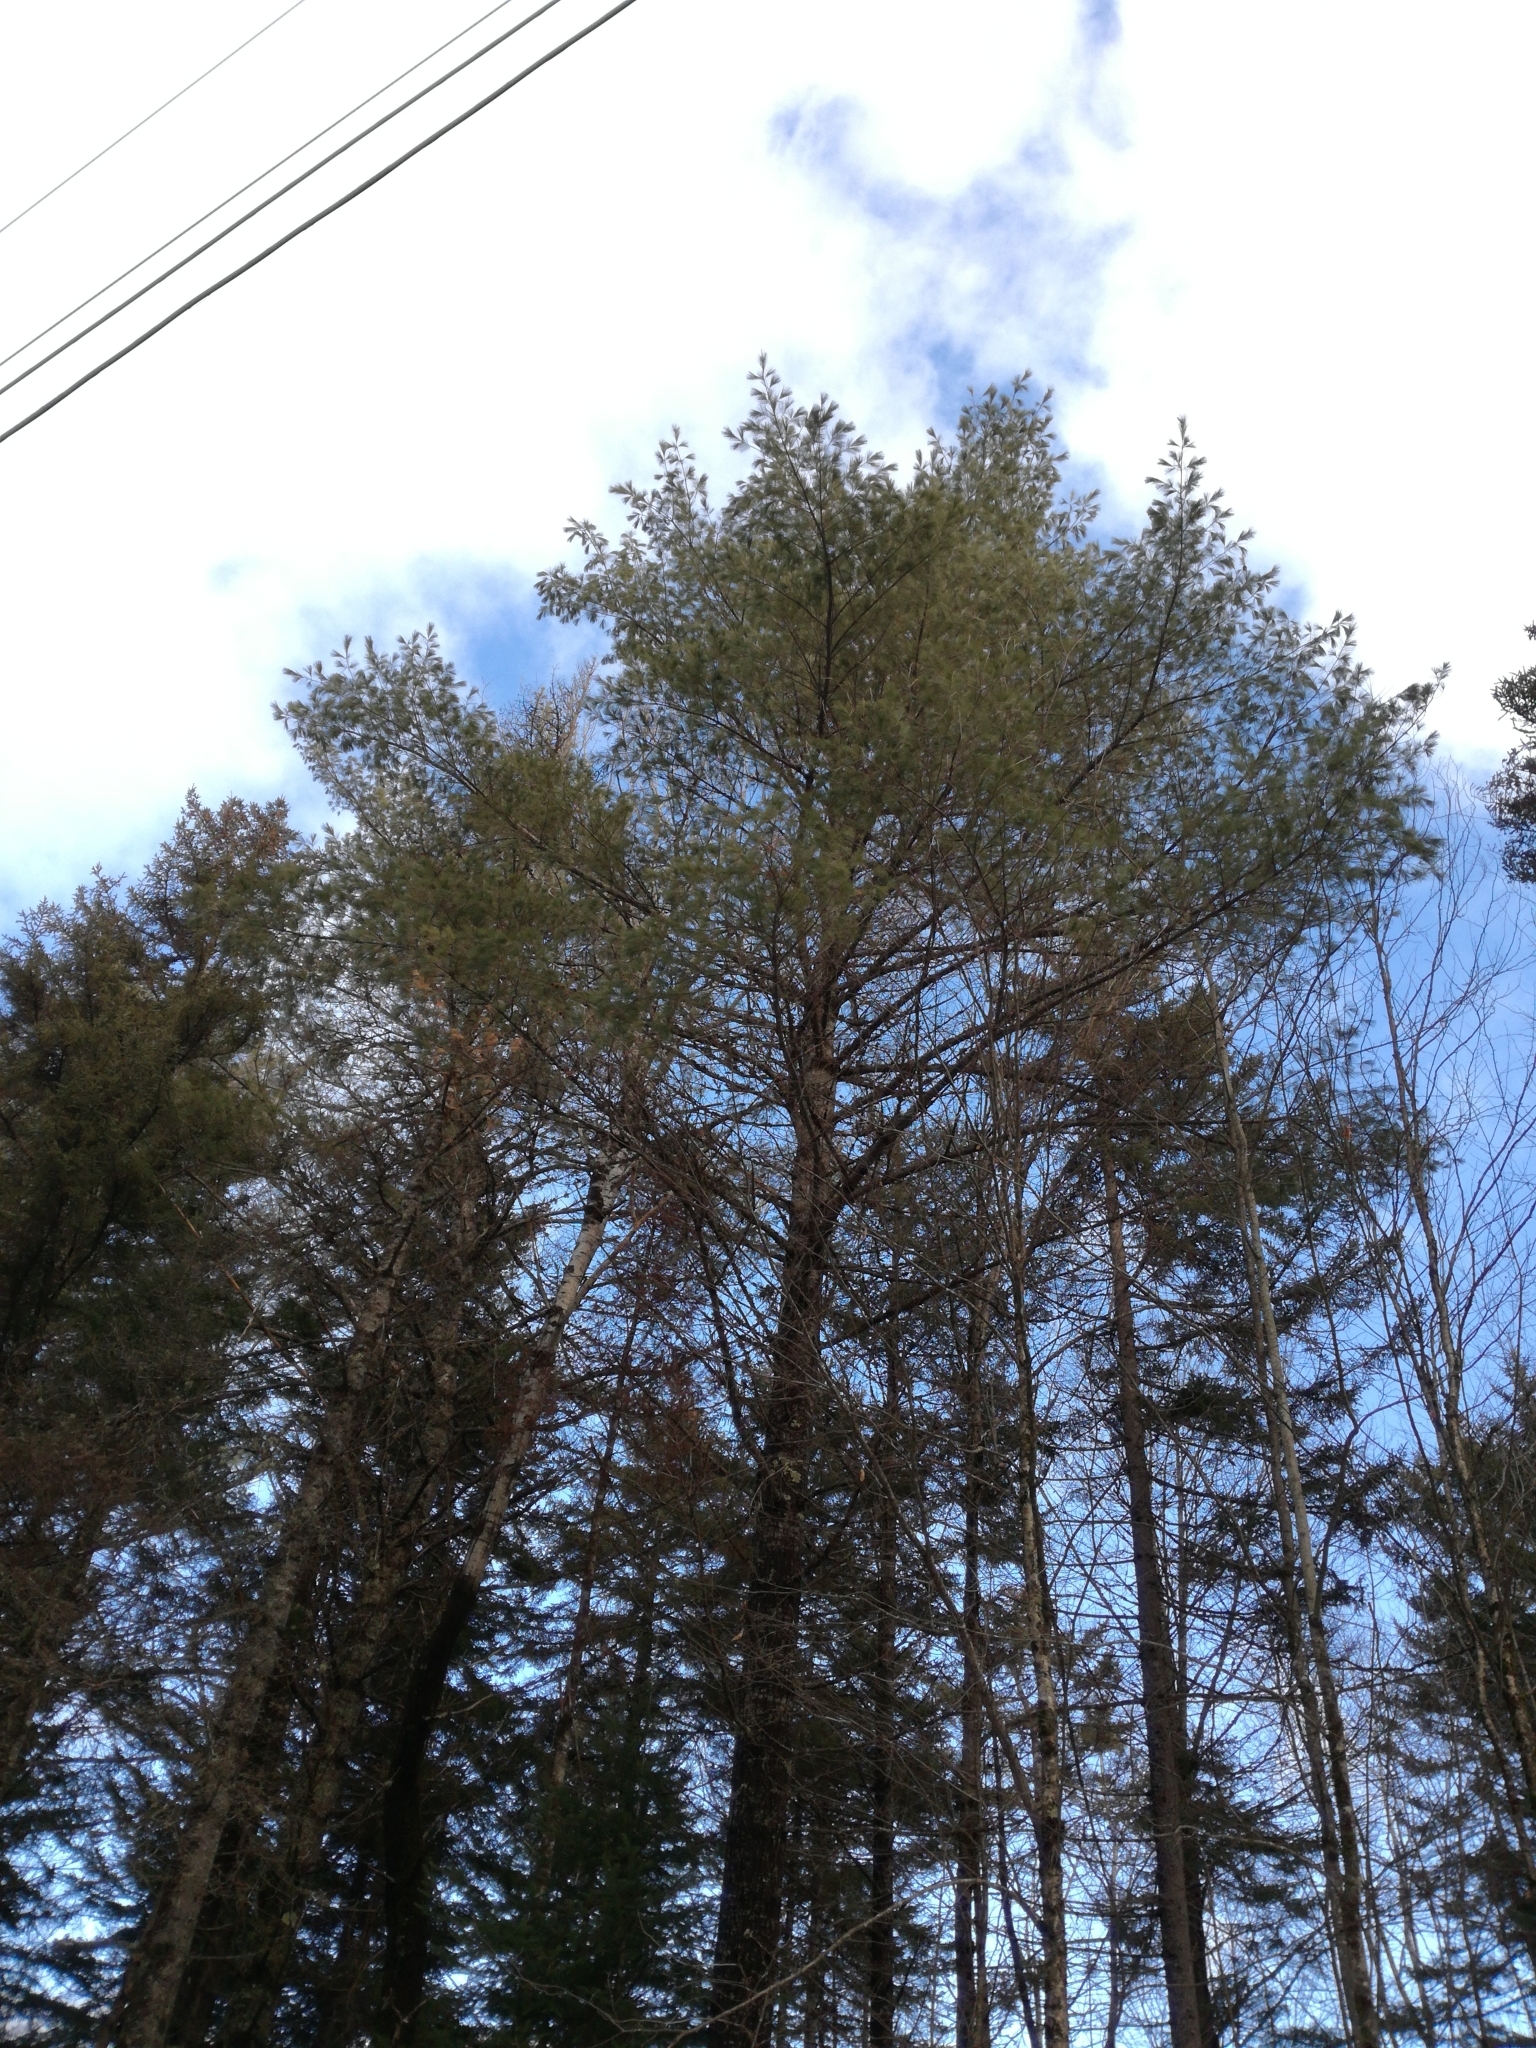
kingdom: Plantae
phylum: Tracheophyta
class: Pinopsida
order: Pinales
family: Pinaceae
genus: Pinus
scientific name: Pinus strobus
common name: Weymouth pine
